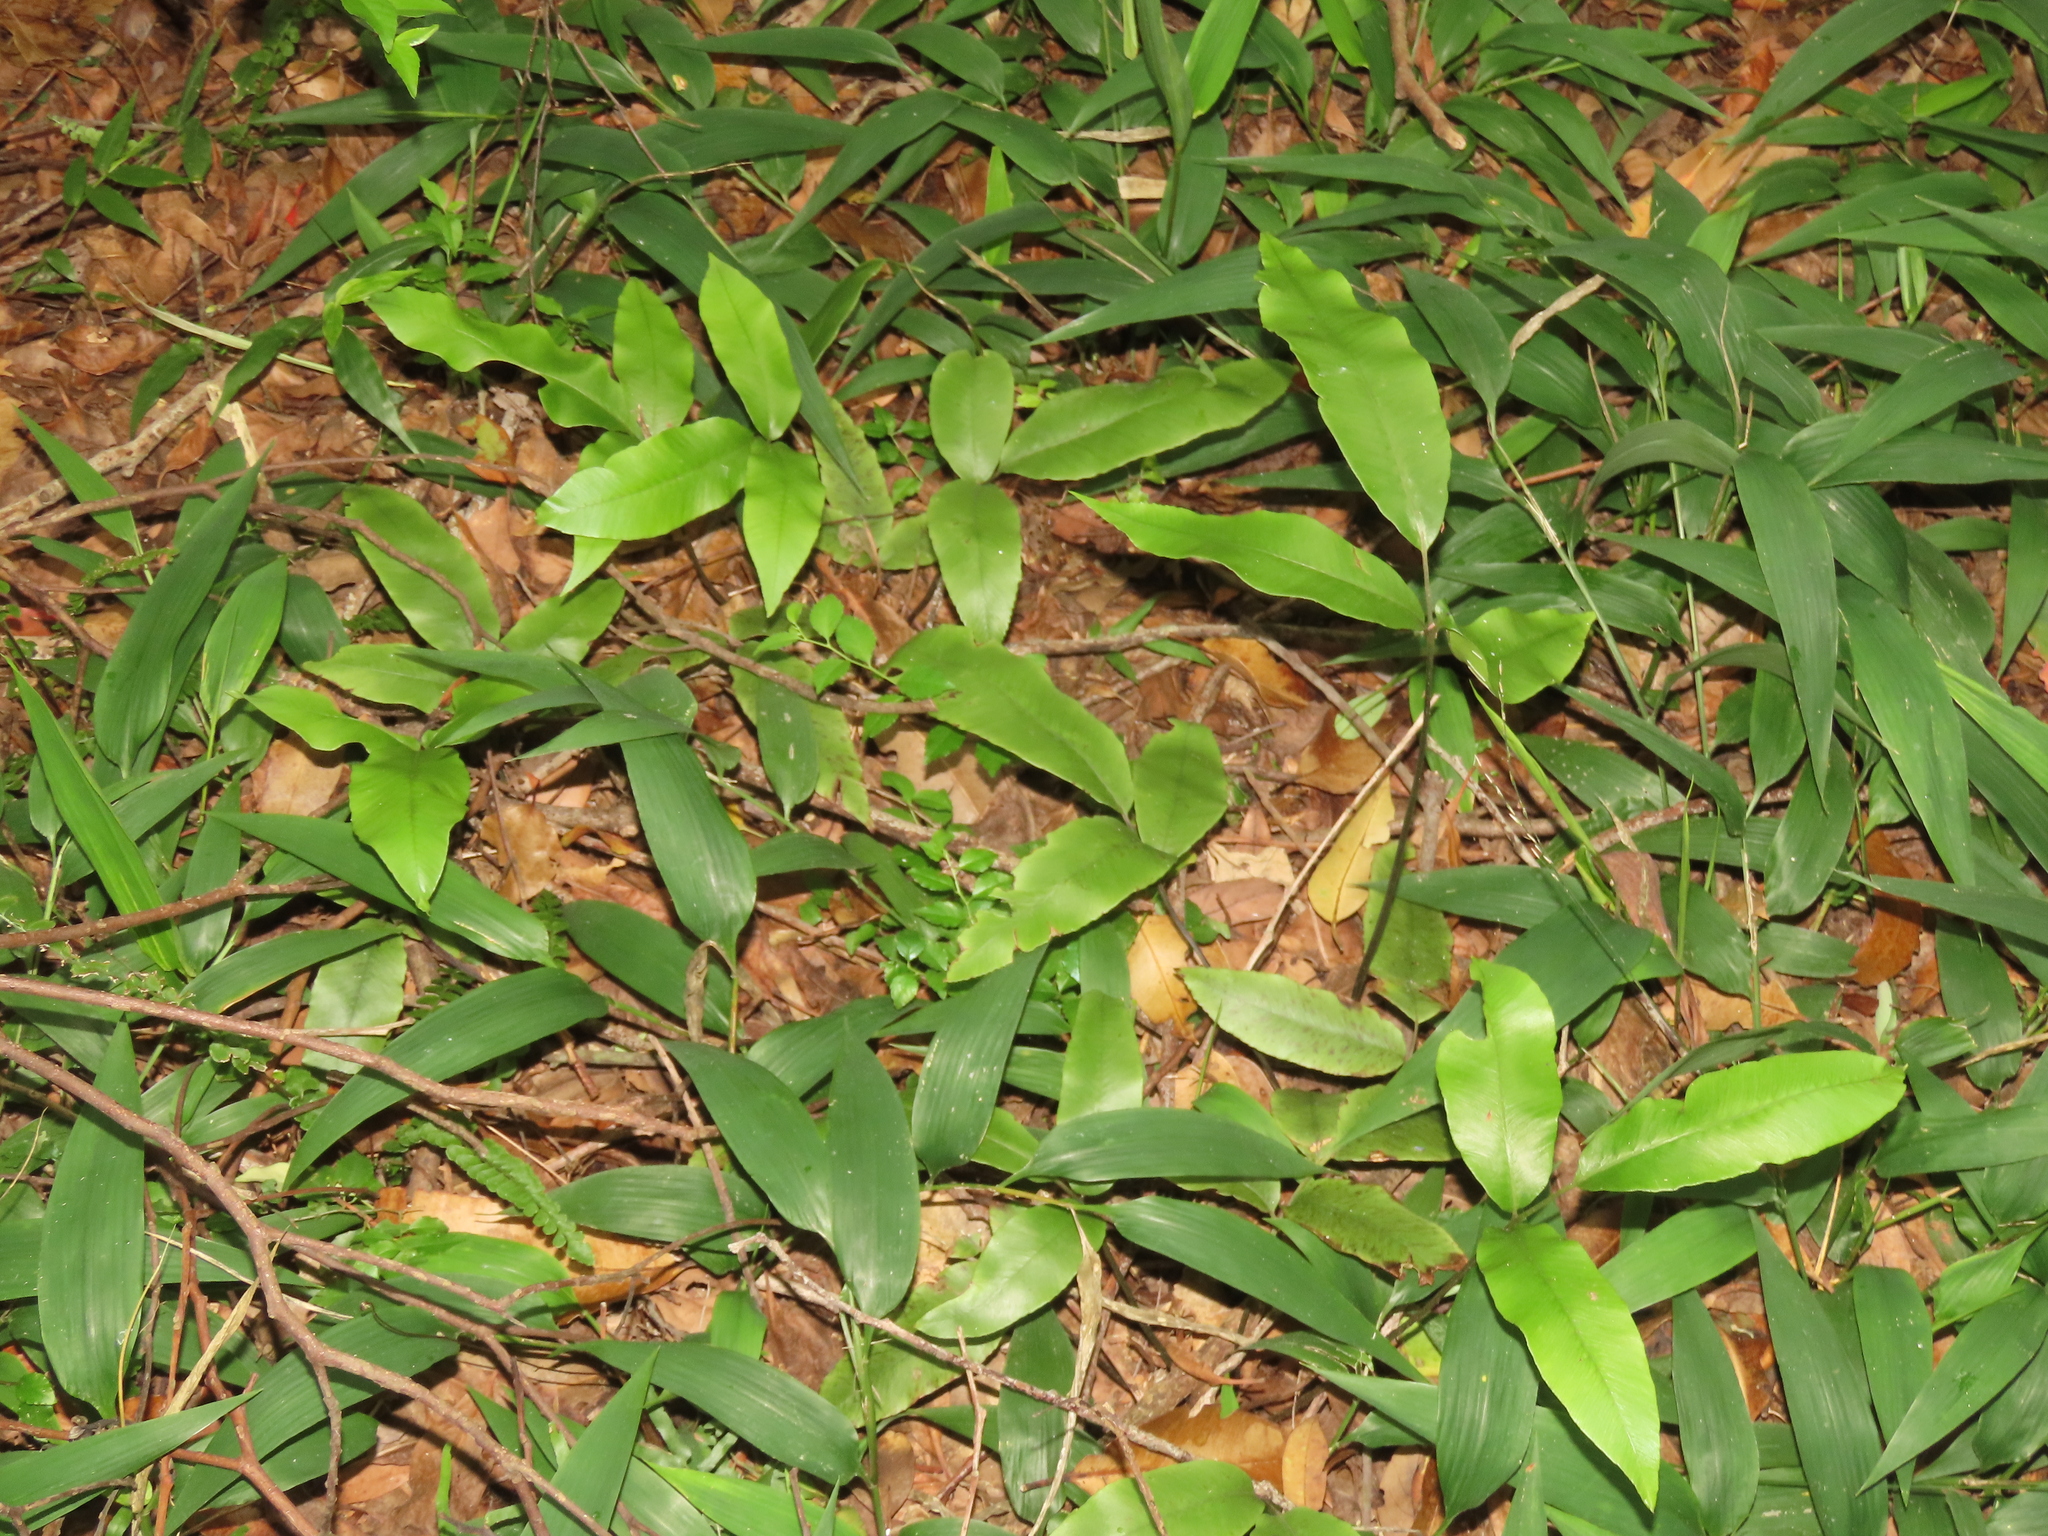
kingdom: Plantae
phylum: Tracheophyta
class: Polypodiopsida
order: Polypodiales
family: Athyriaceae
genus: Diplazium
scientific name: Diplazium lineolatum
